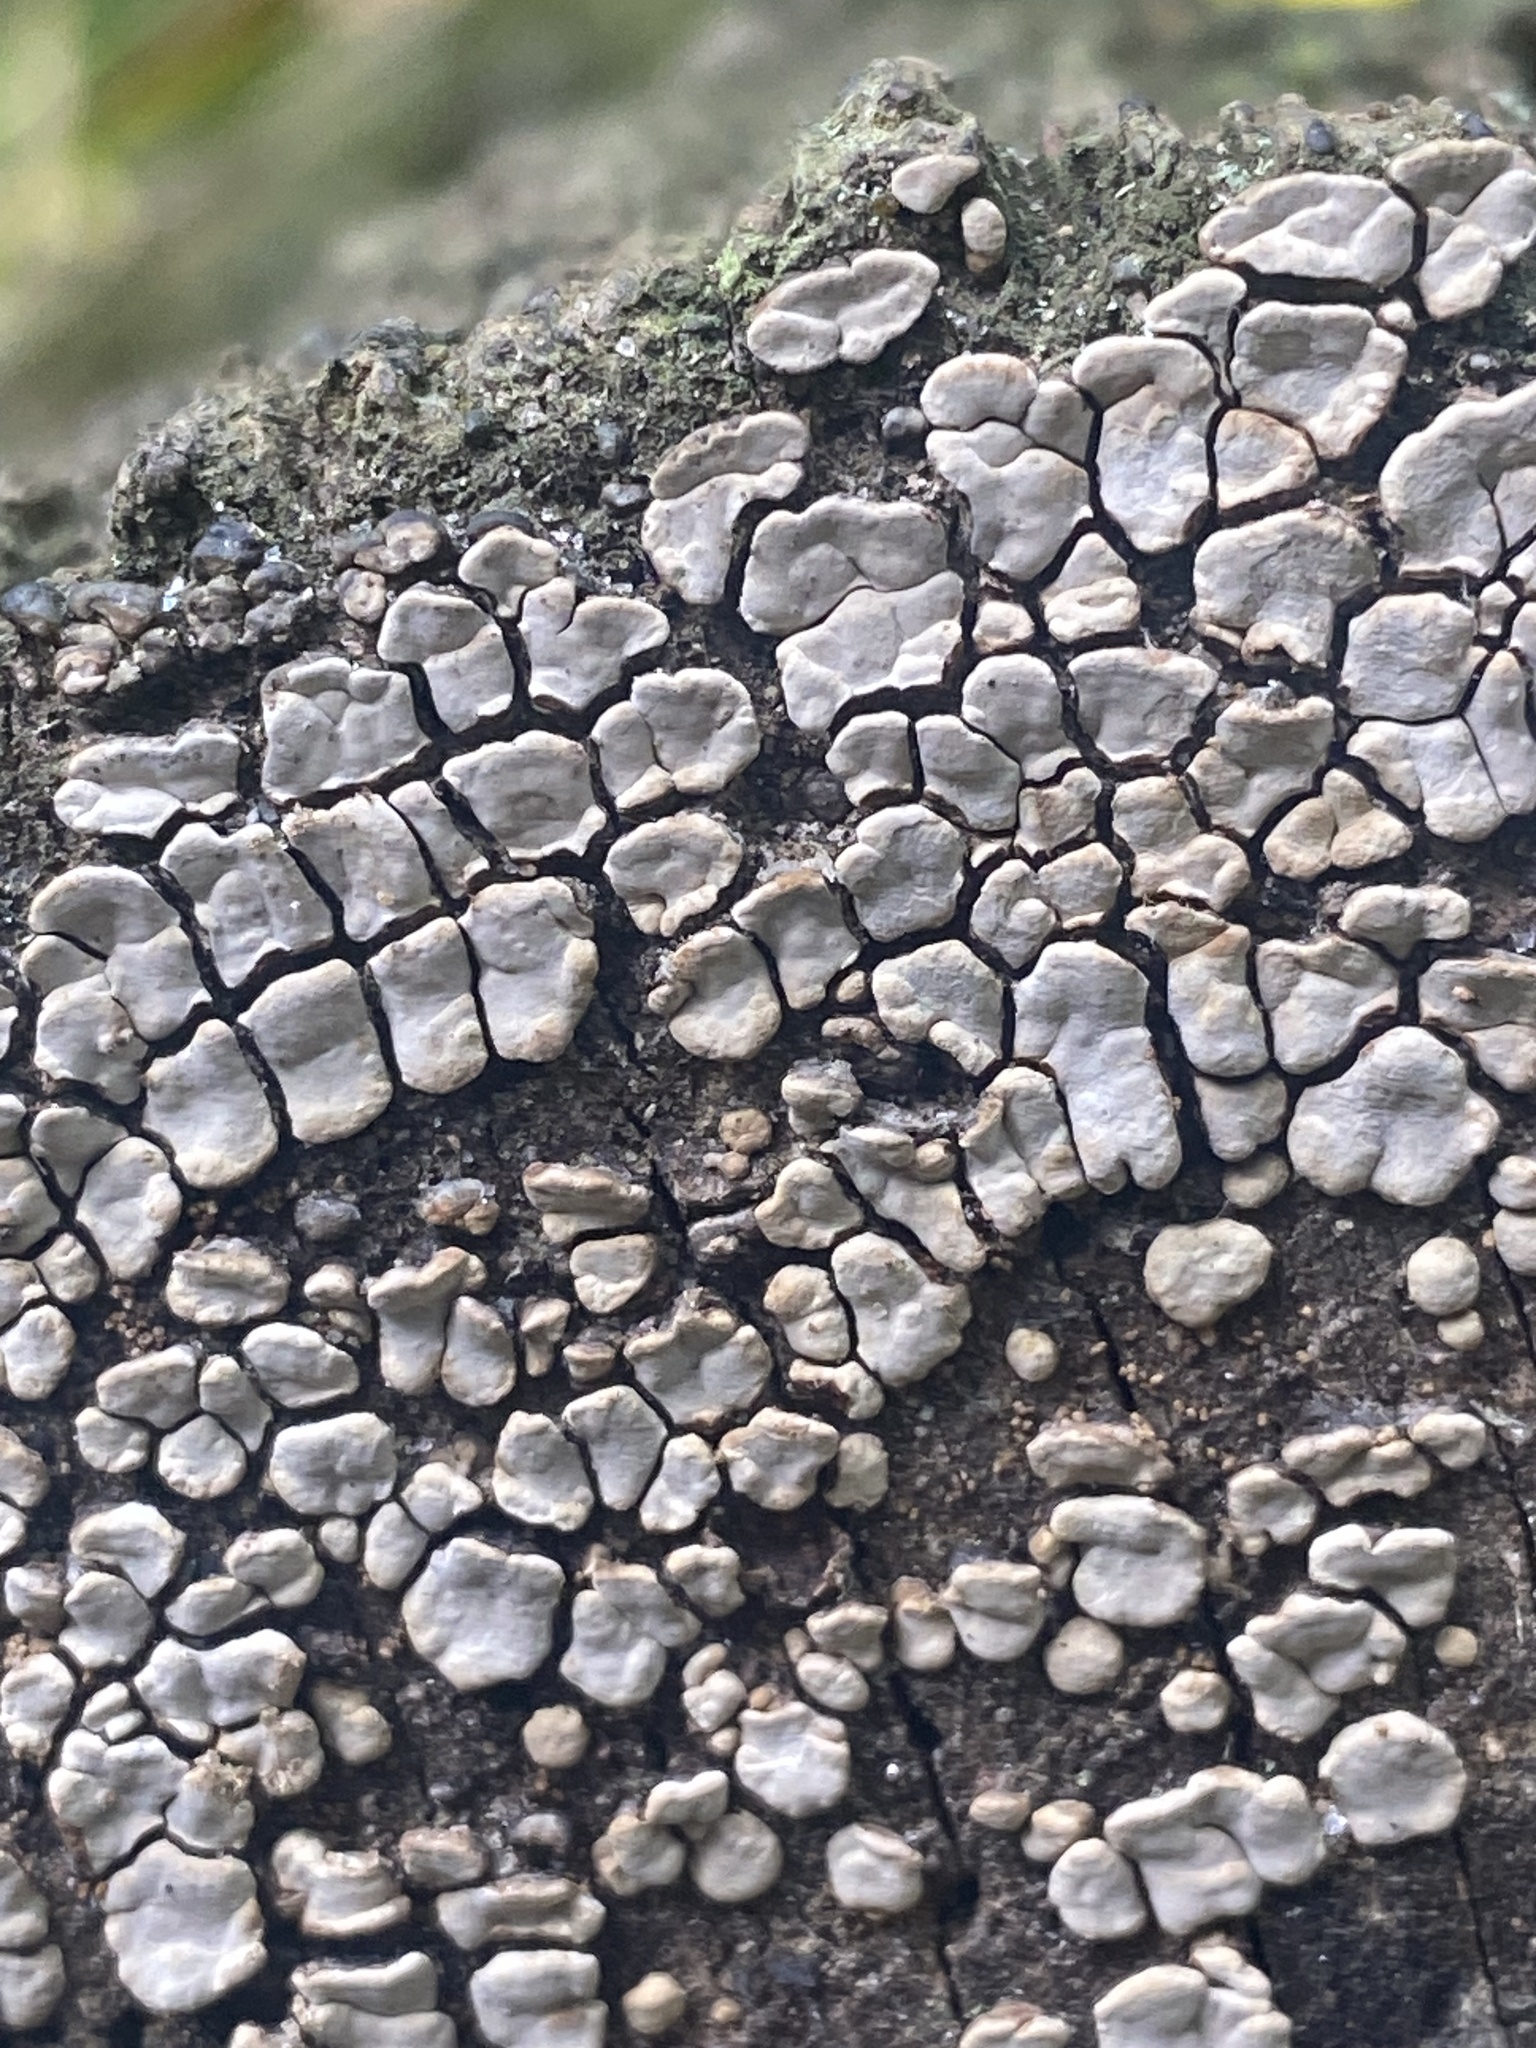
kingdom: Fungi
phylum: Basidiomycota
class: Agaricomycetes
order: Russulales
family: Stereaceae
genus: Xylobolus
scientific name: Xylobolus frustulatus
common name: Ceramic parchment
